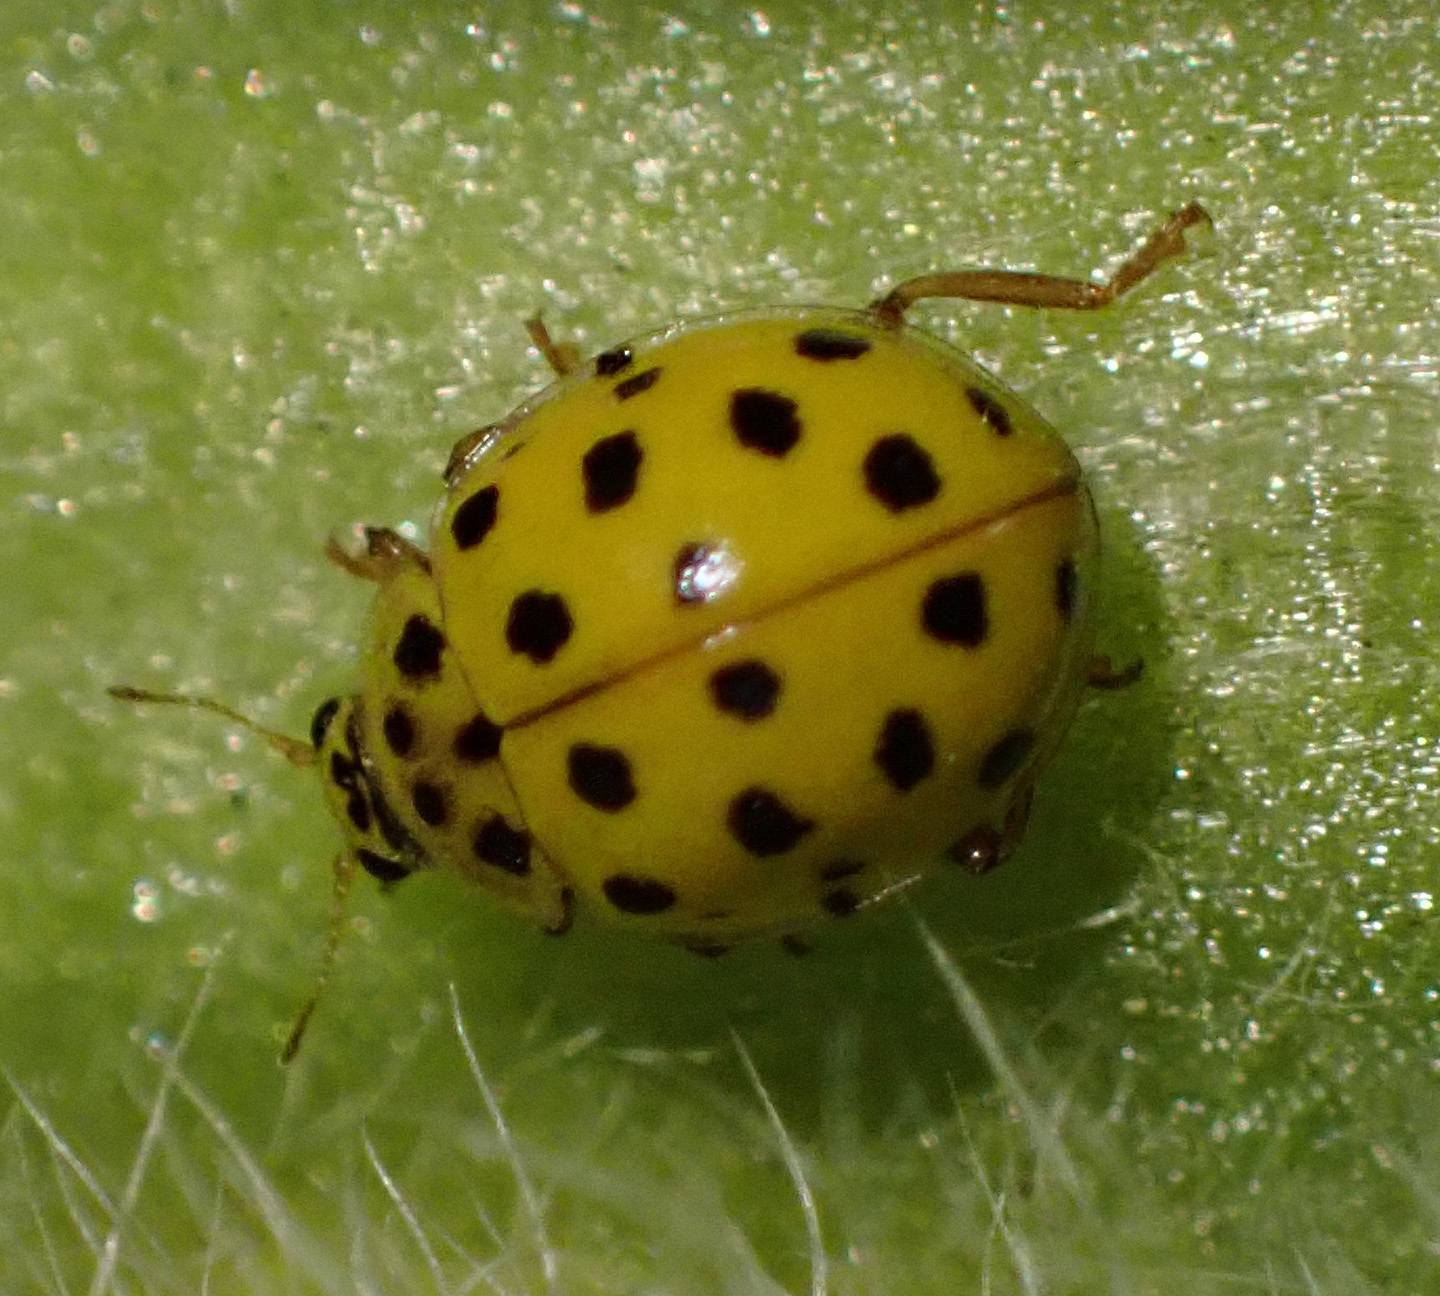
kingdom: Animalia
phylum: Arthropoda
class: Insecta
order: Coleoptera
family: Coccinellidae
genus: Psyllobora
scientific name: Psyllobora vigintiduopunctata
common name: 22-spot ladybird
